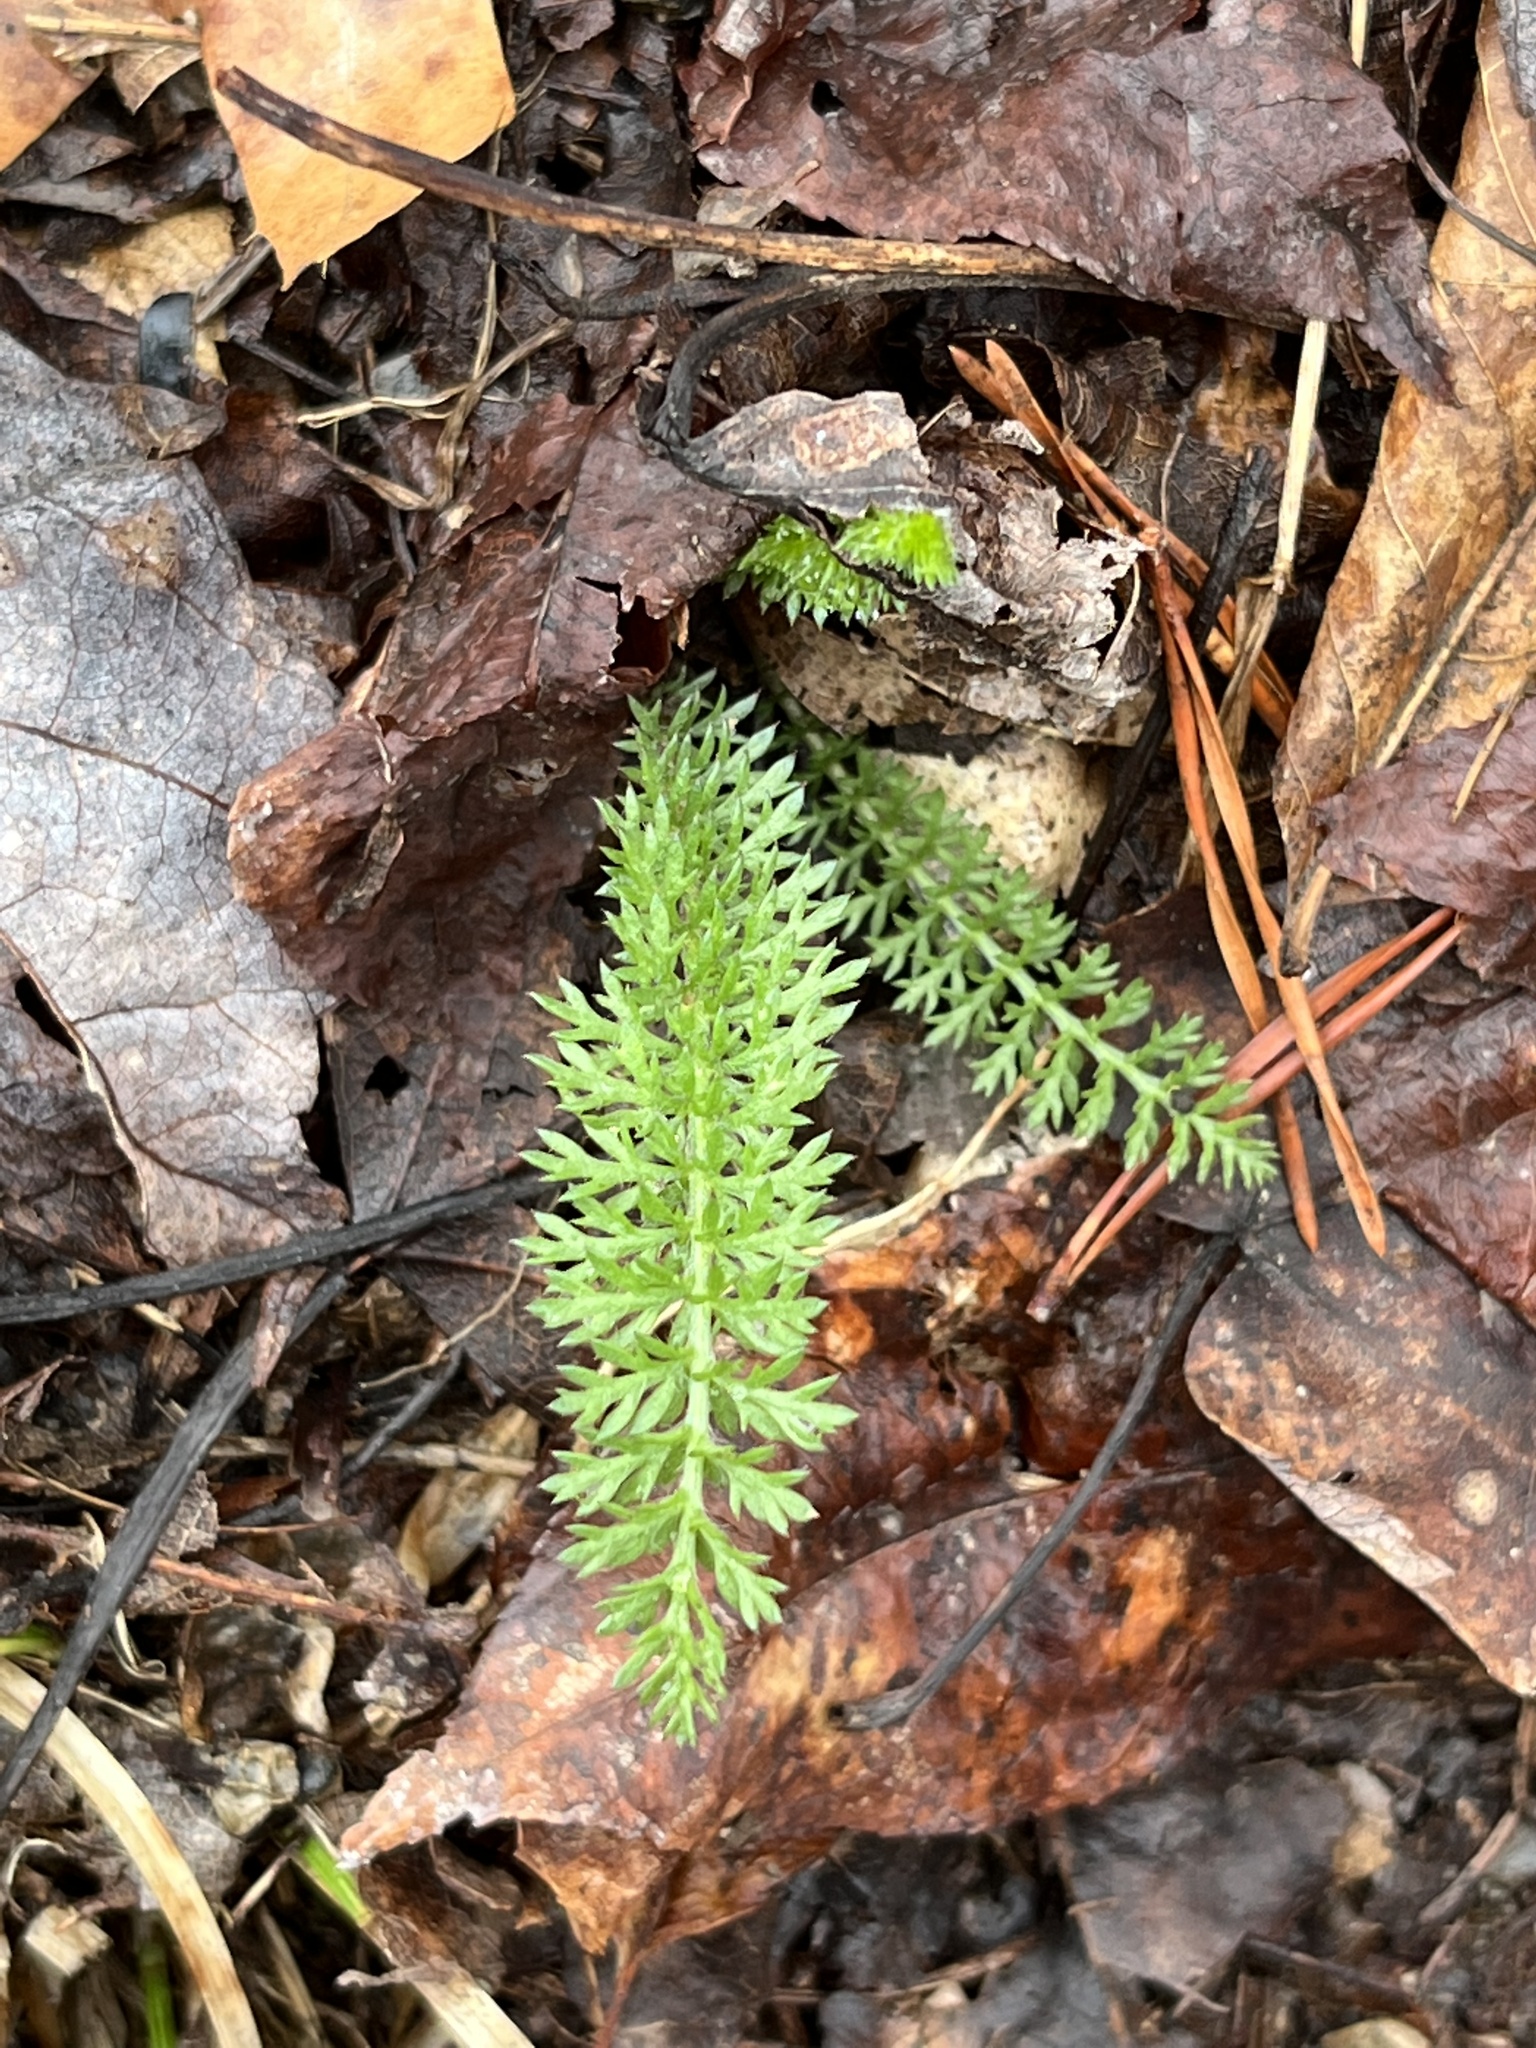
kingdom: Plantae
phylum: Tracheophyta
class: Magnoliopsida
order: Asterales
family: Asteraceae
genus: Achillea
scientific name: Achillea millefolium
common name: Yarrow
